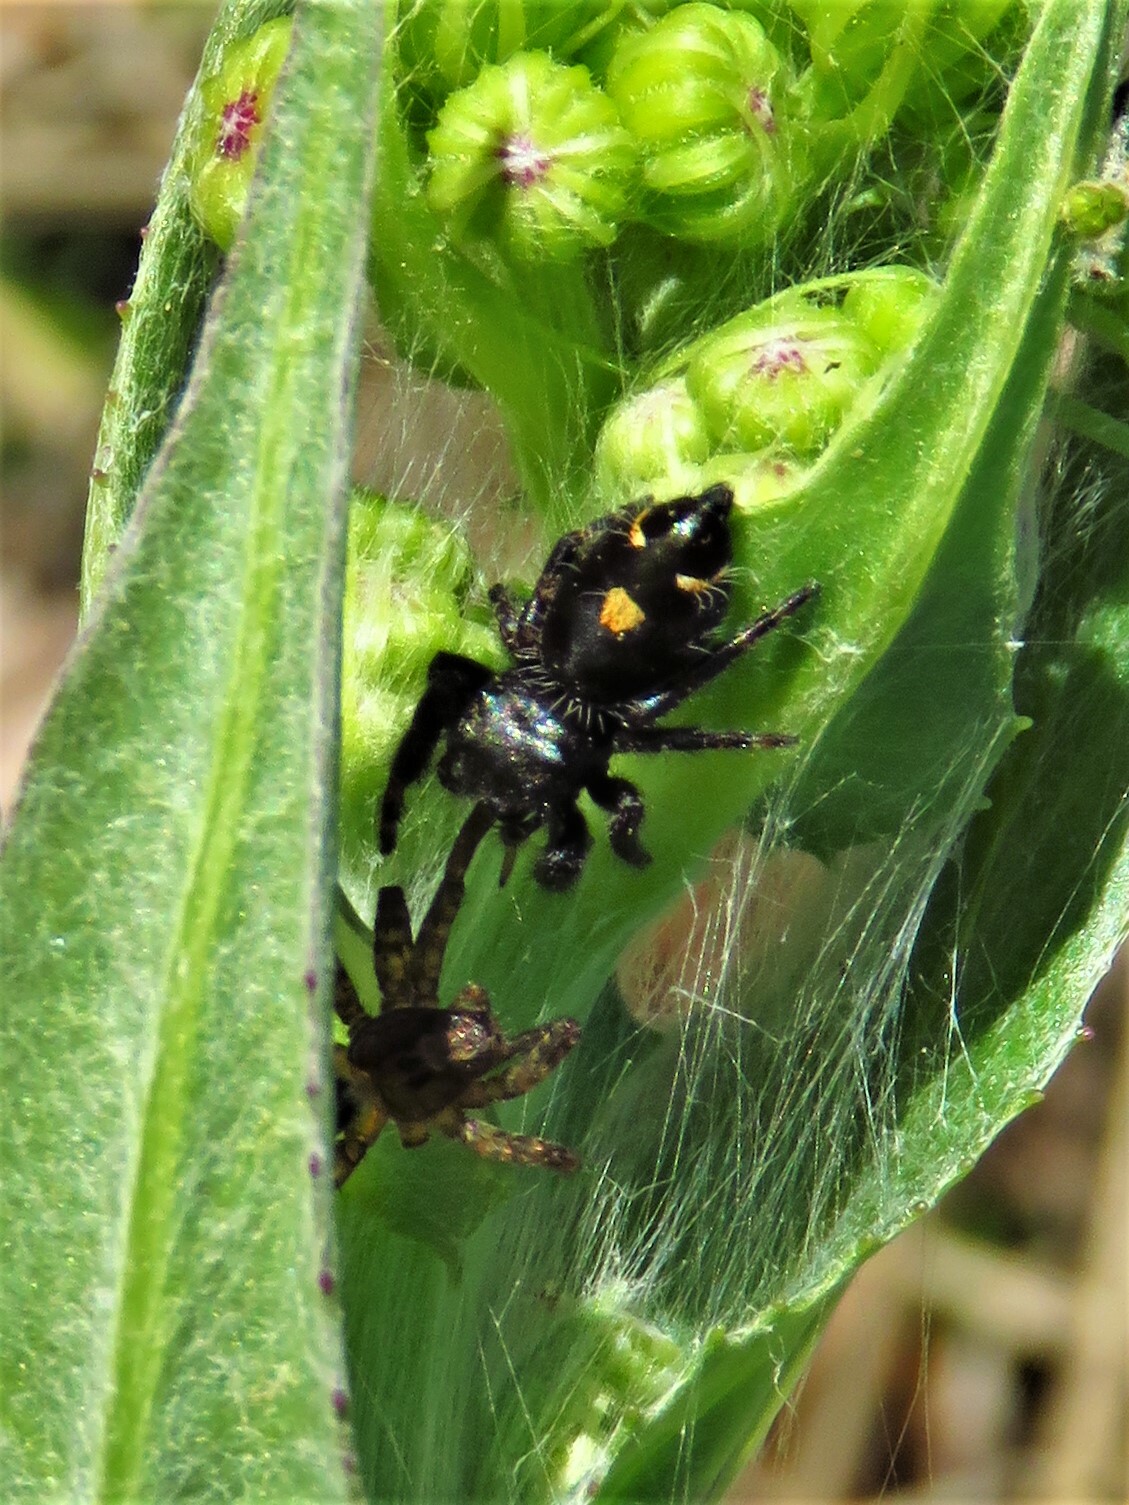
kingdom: Animalia
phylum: Arthropoda
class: Arachnida
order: Araneae
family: Salticidae
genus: Phidippus
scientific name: Phidippus audax
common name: Bold jumper
